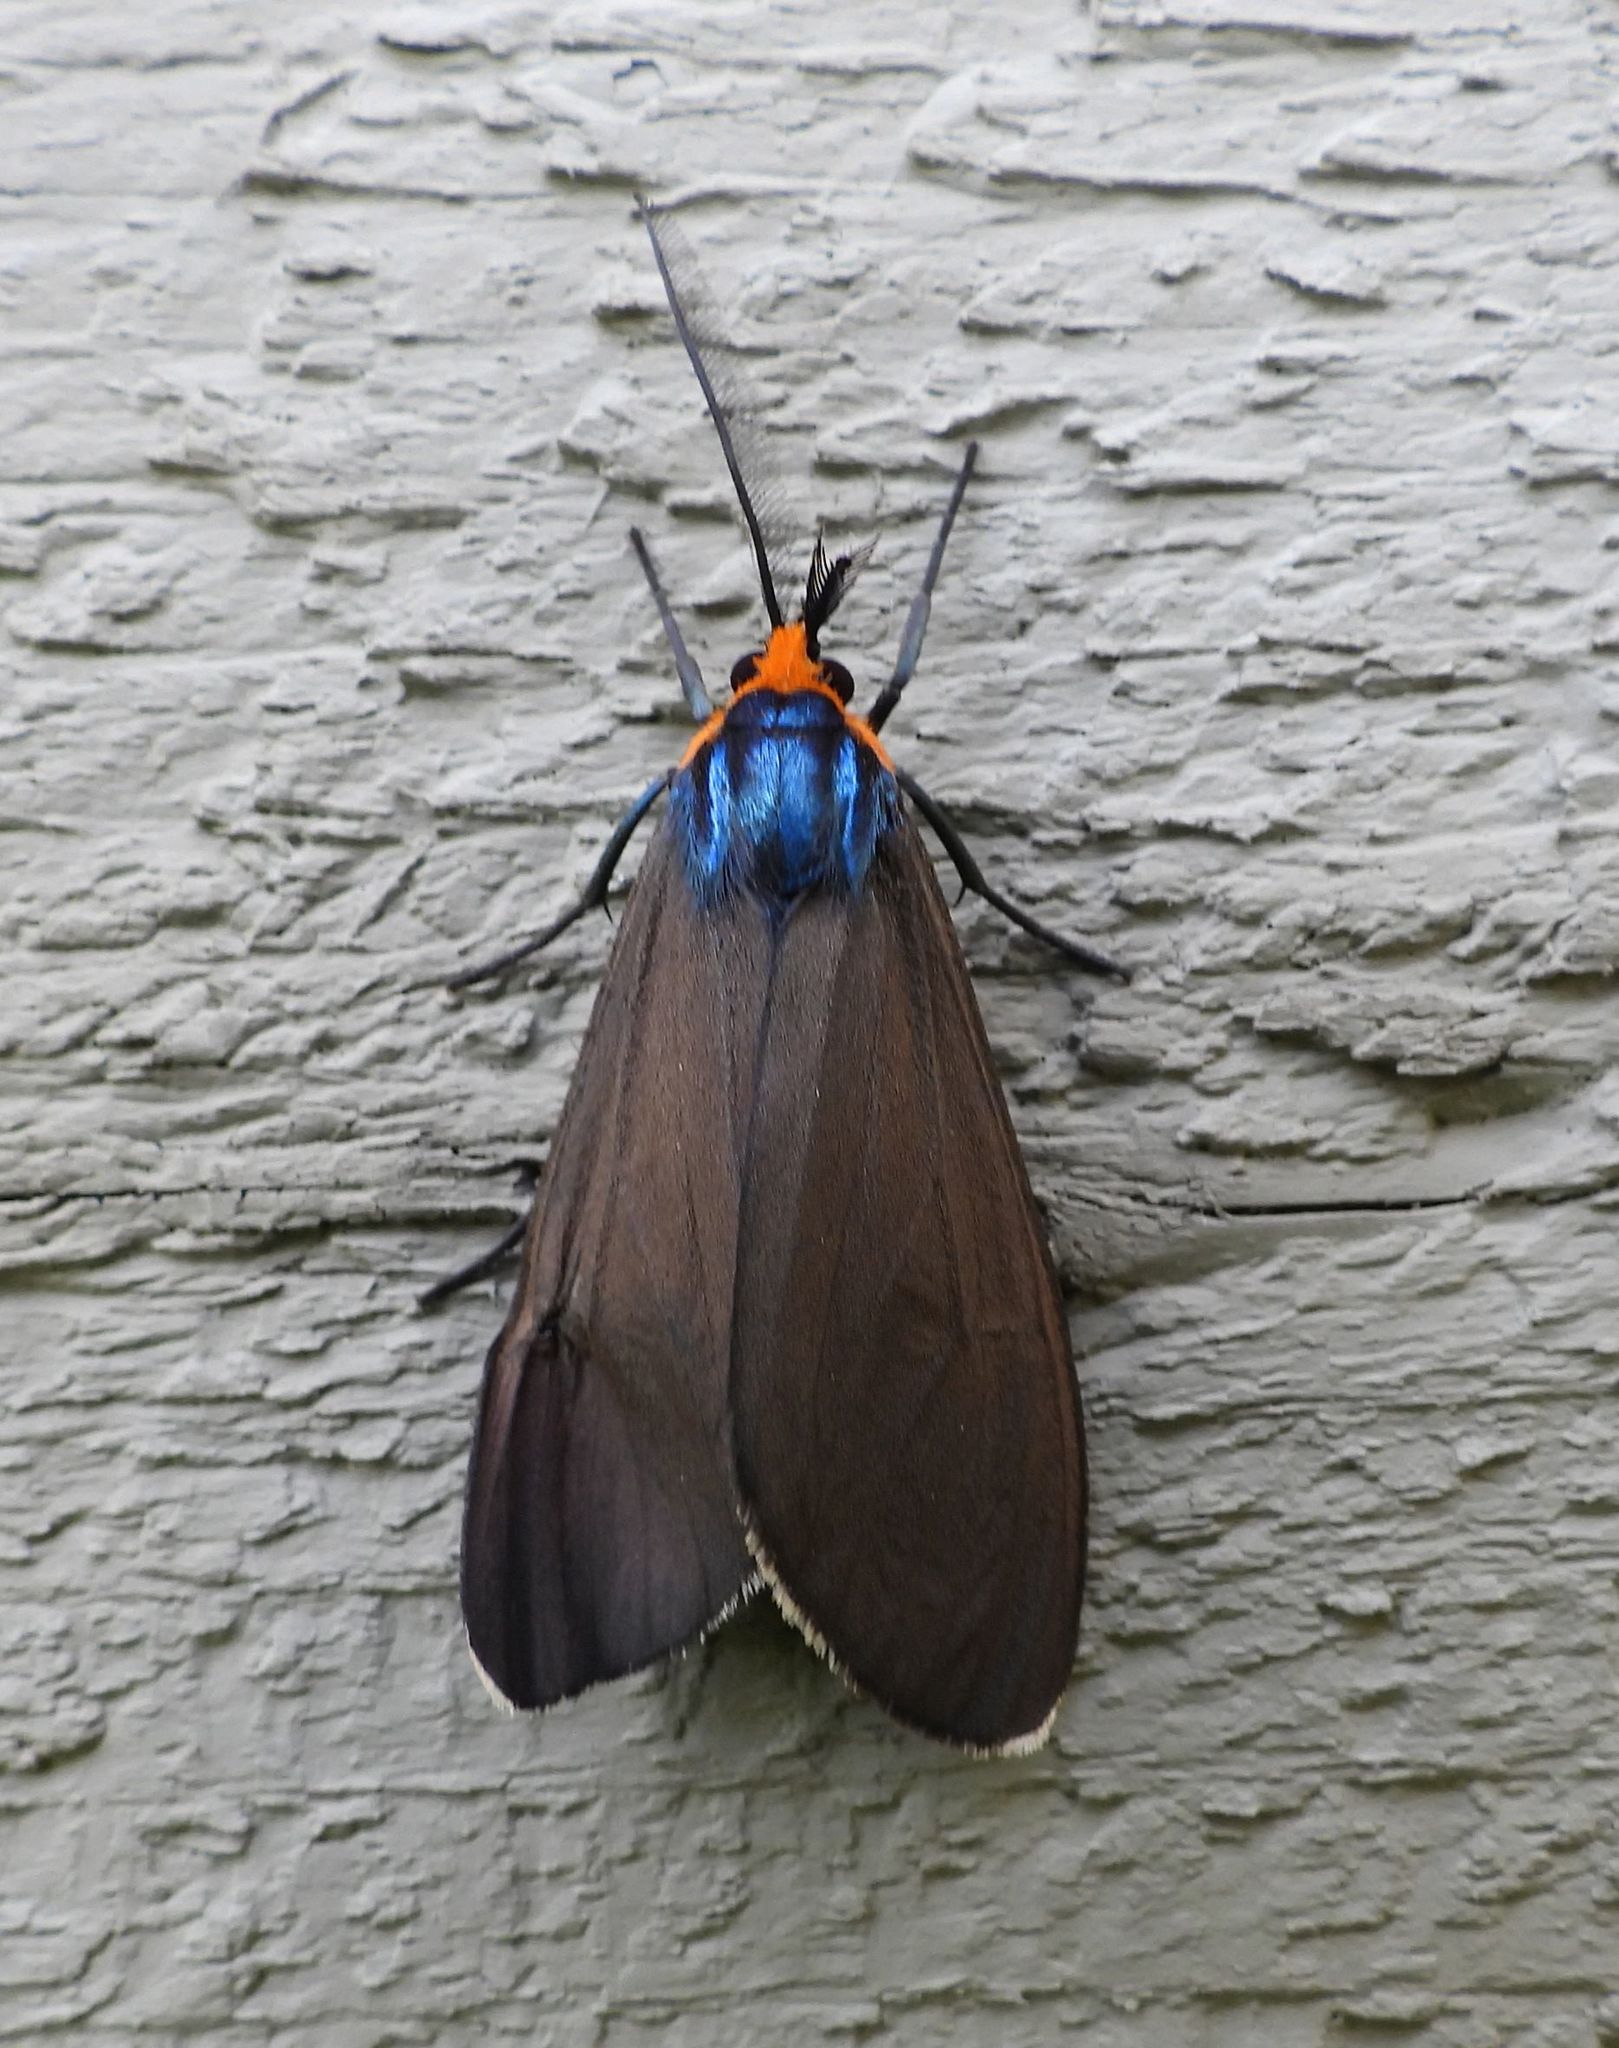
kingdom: Animalia
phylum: Arthropoda
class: Insecta
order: Lepidoptera
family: Erebidae
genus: Ctenucha
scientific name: Ctenucha virginica
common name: Virginia ctenucha moth
